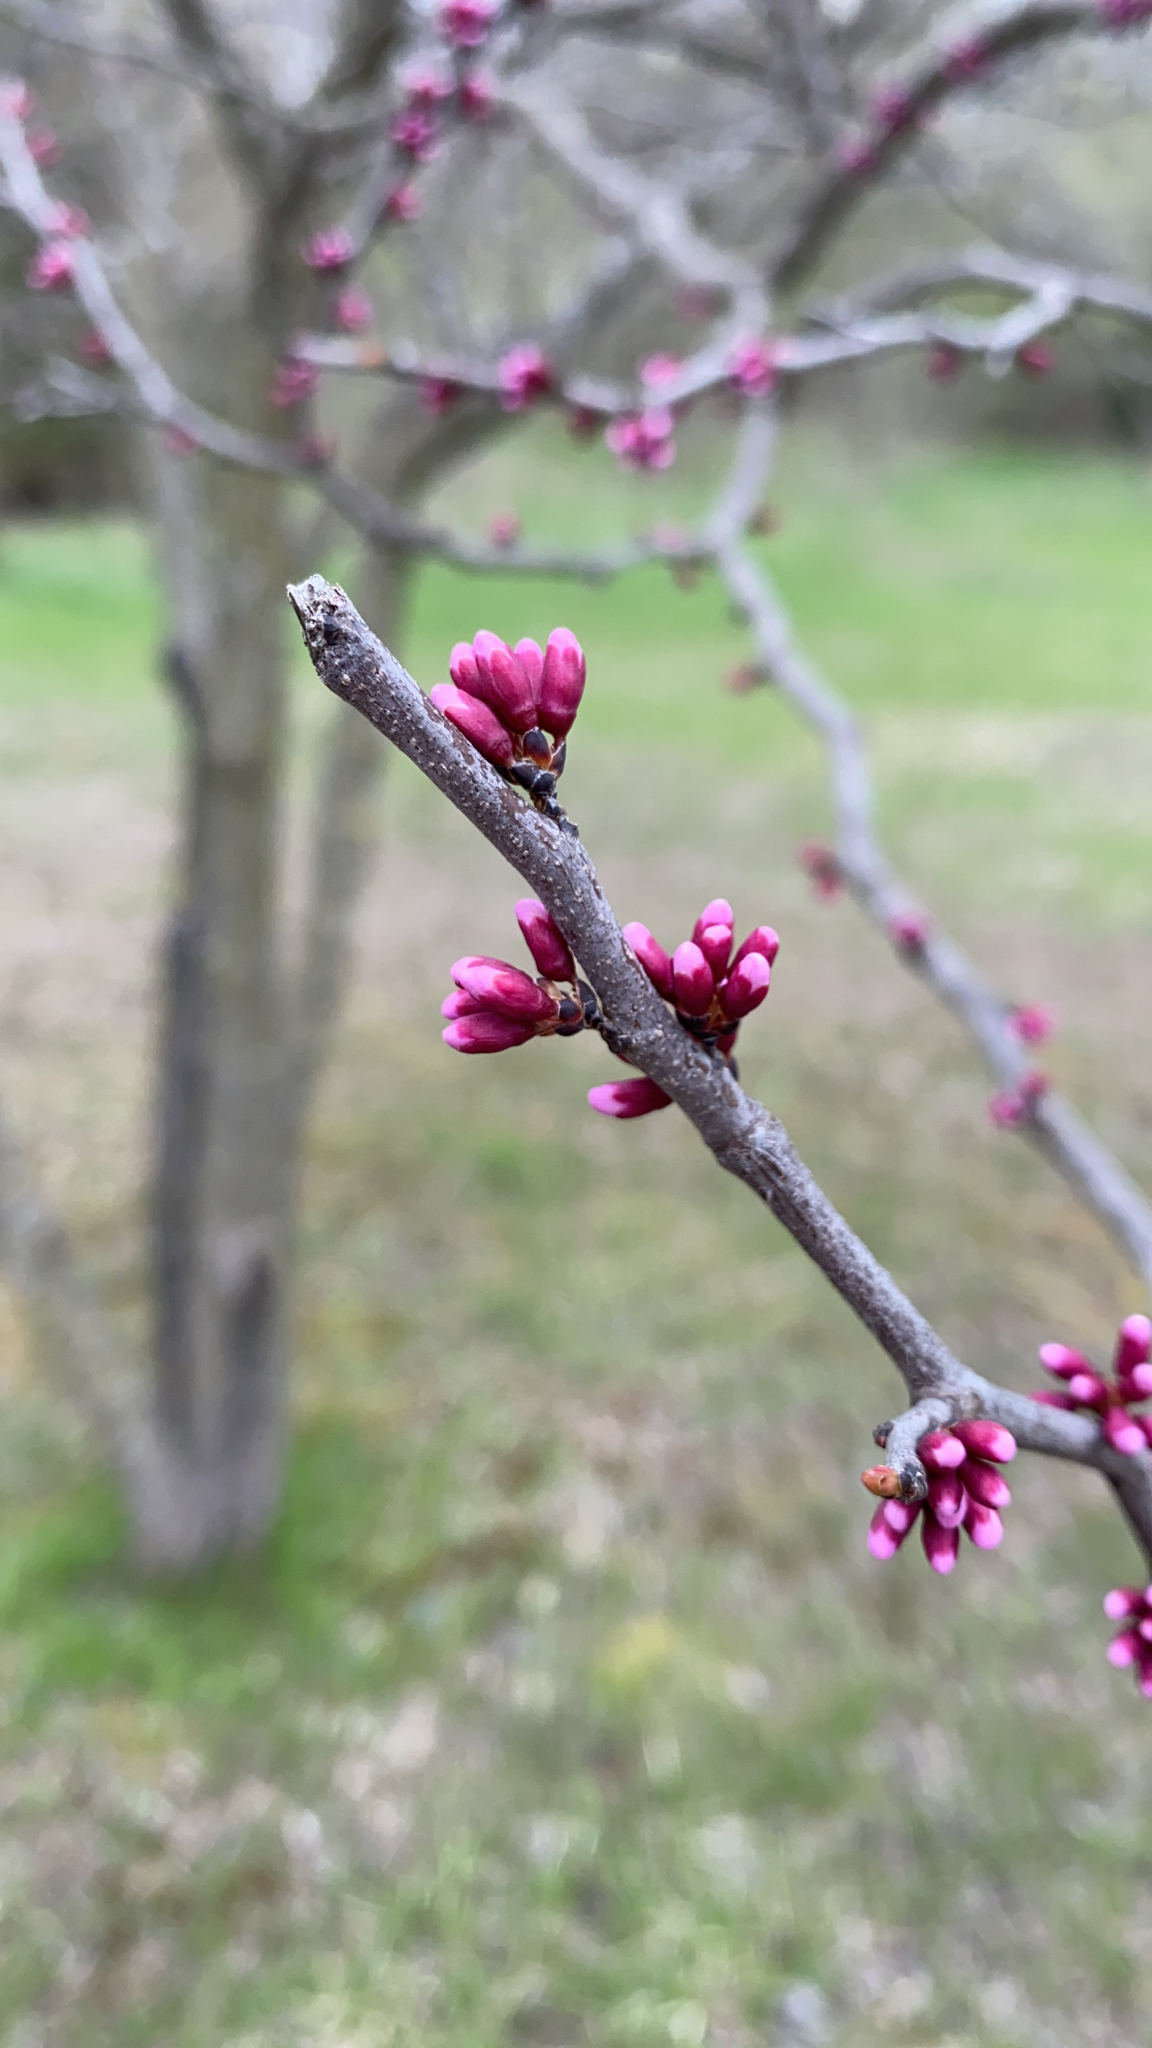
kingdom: Plantae
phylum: Tracheophyta
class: Magnoliopsida
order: Fabales
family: Fabaceae
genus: Cercis
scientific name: Cercis canadensis
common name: Eastern redbud
